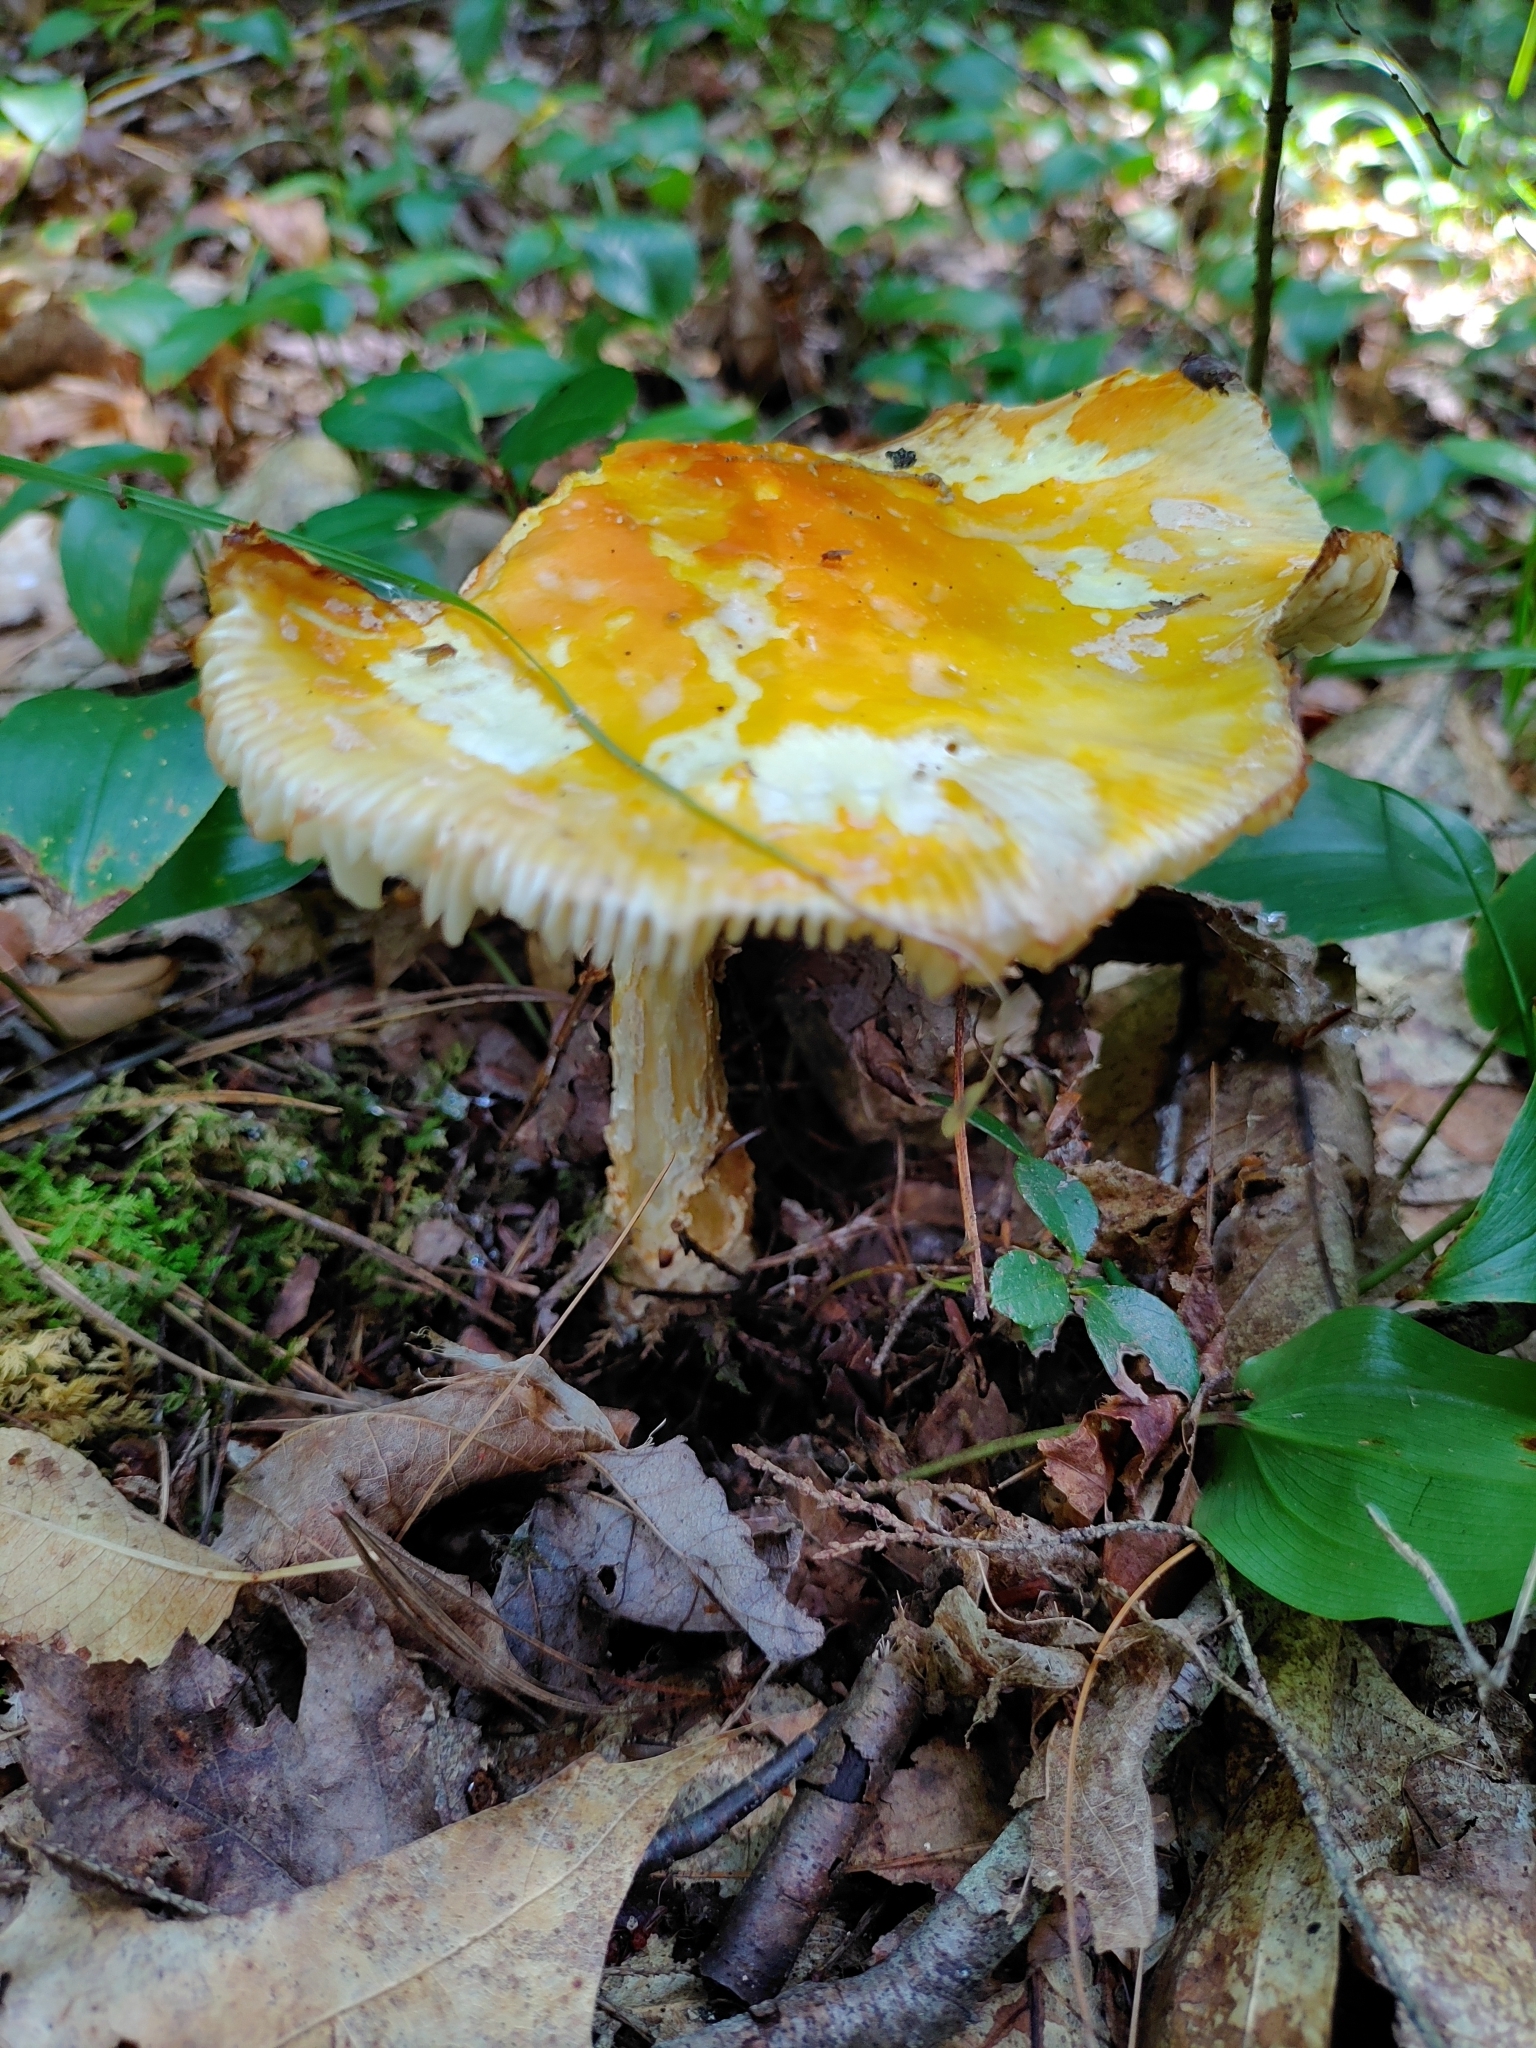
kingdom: Fungi
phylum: Basidiomycota
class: Agaricomycetes
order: Agaricales
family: Amanitaceae
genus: Amanita
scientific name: Amanita muscaria
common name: Fly agaric
